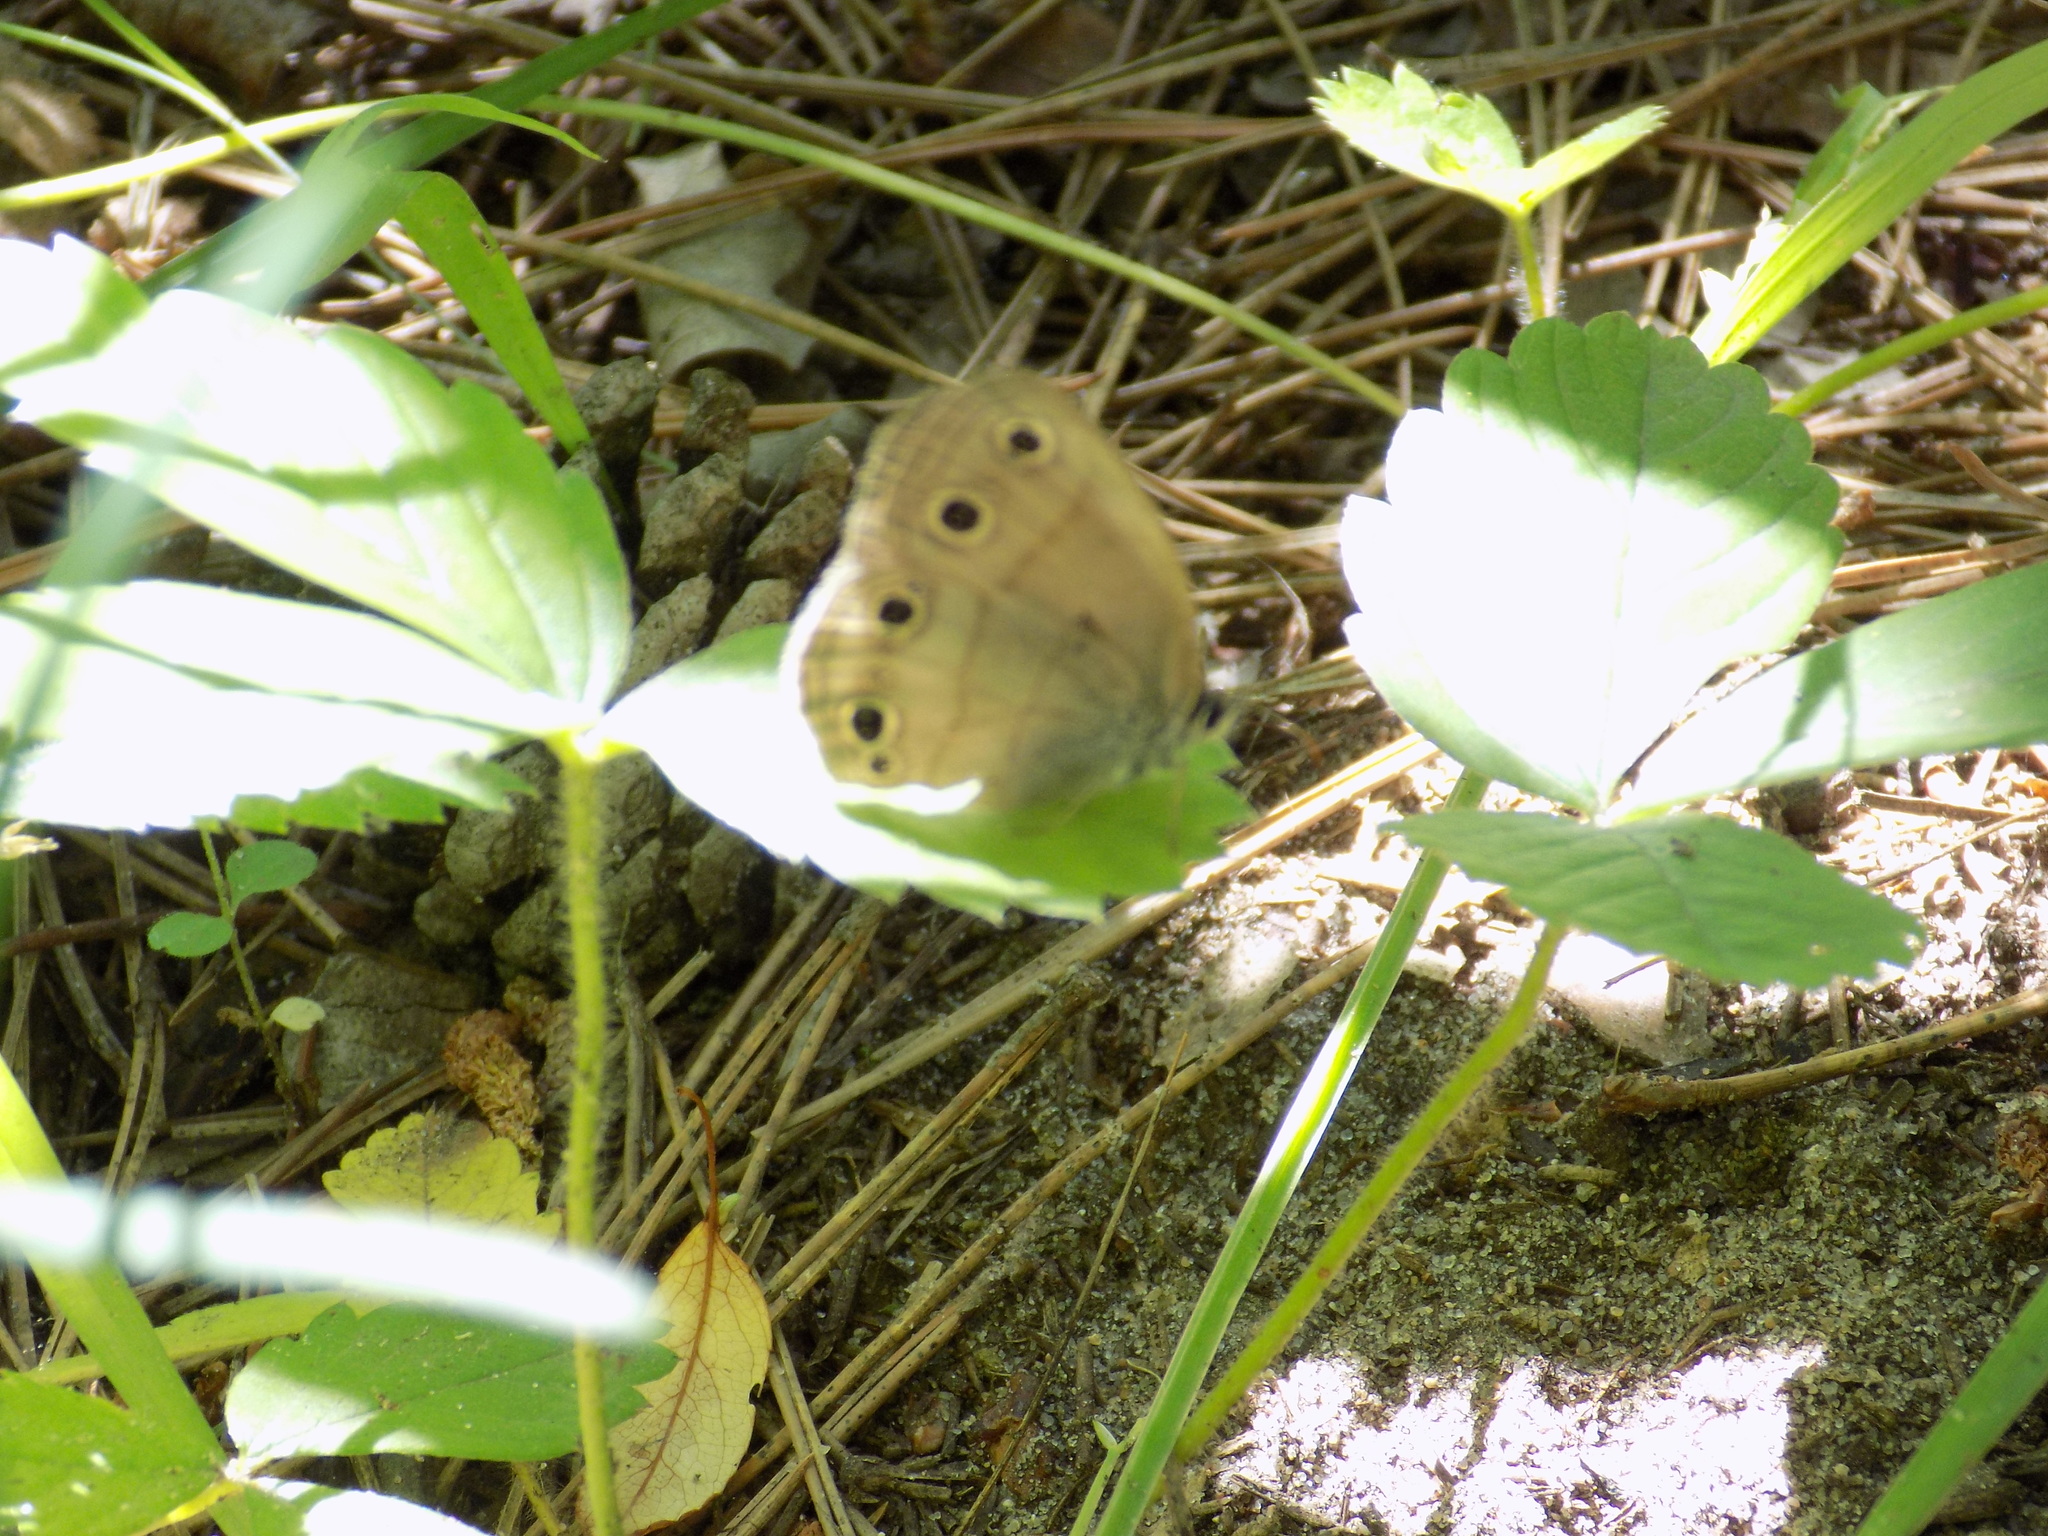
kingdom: Animalia
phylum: Arthropoda
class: Insecta
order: Lepidoptera
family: Nymphalidae
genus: Euptychia
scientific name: Euptychia cymela
